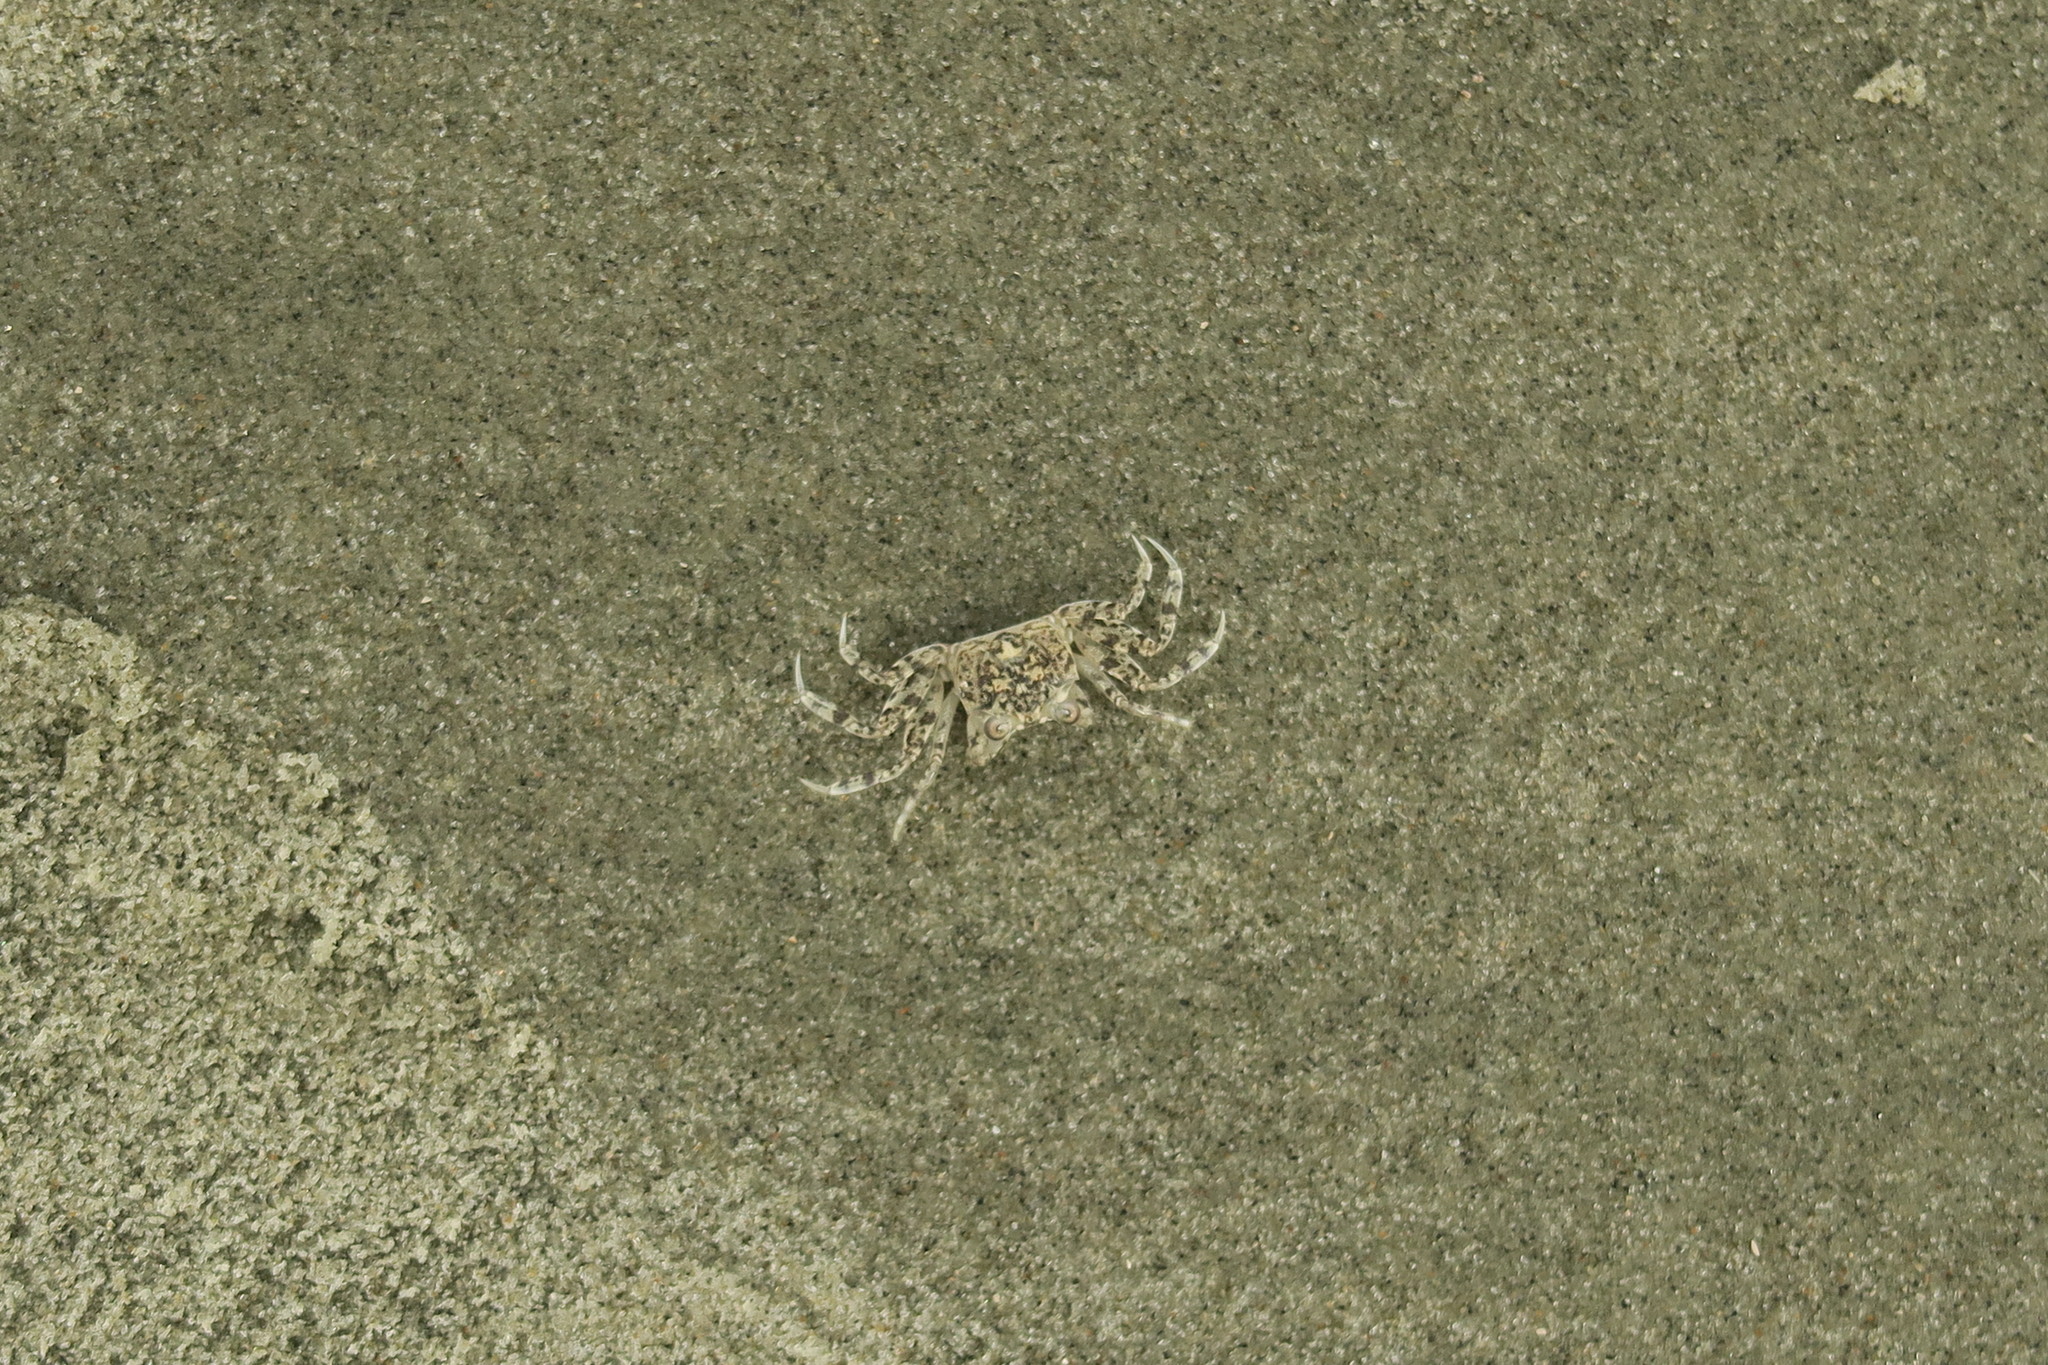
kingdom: Animalia
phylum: Arthropoda
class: Malacostraca
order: Decapoda
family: Ocypodidae
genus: Ocypode
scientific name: Ocypode quadrata
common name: Ghost crab
